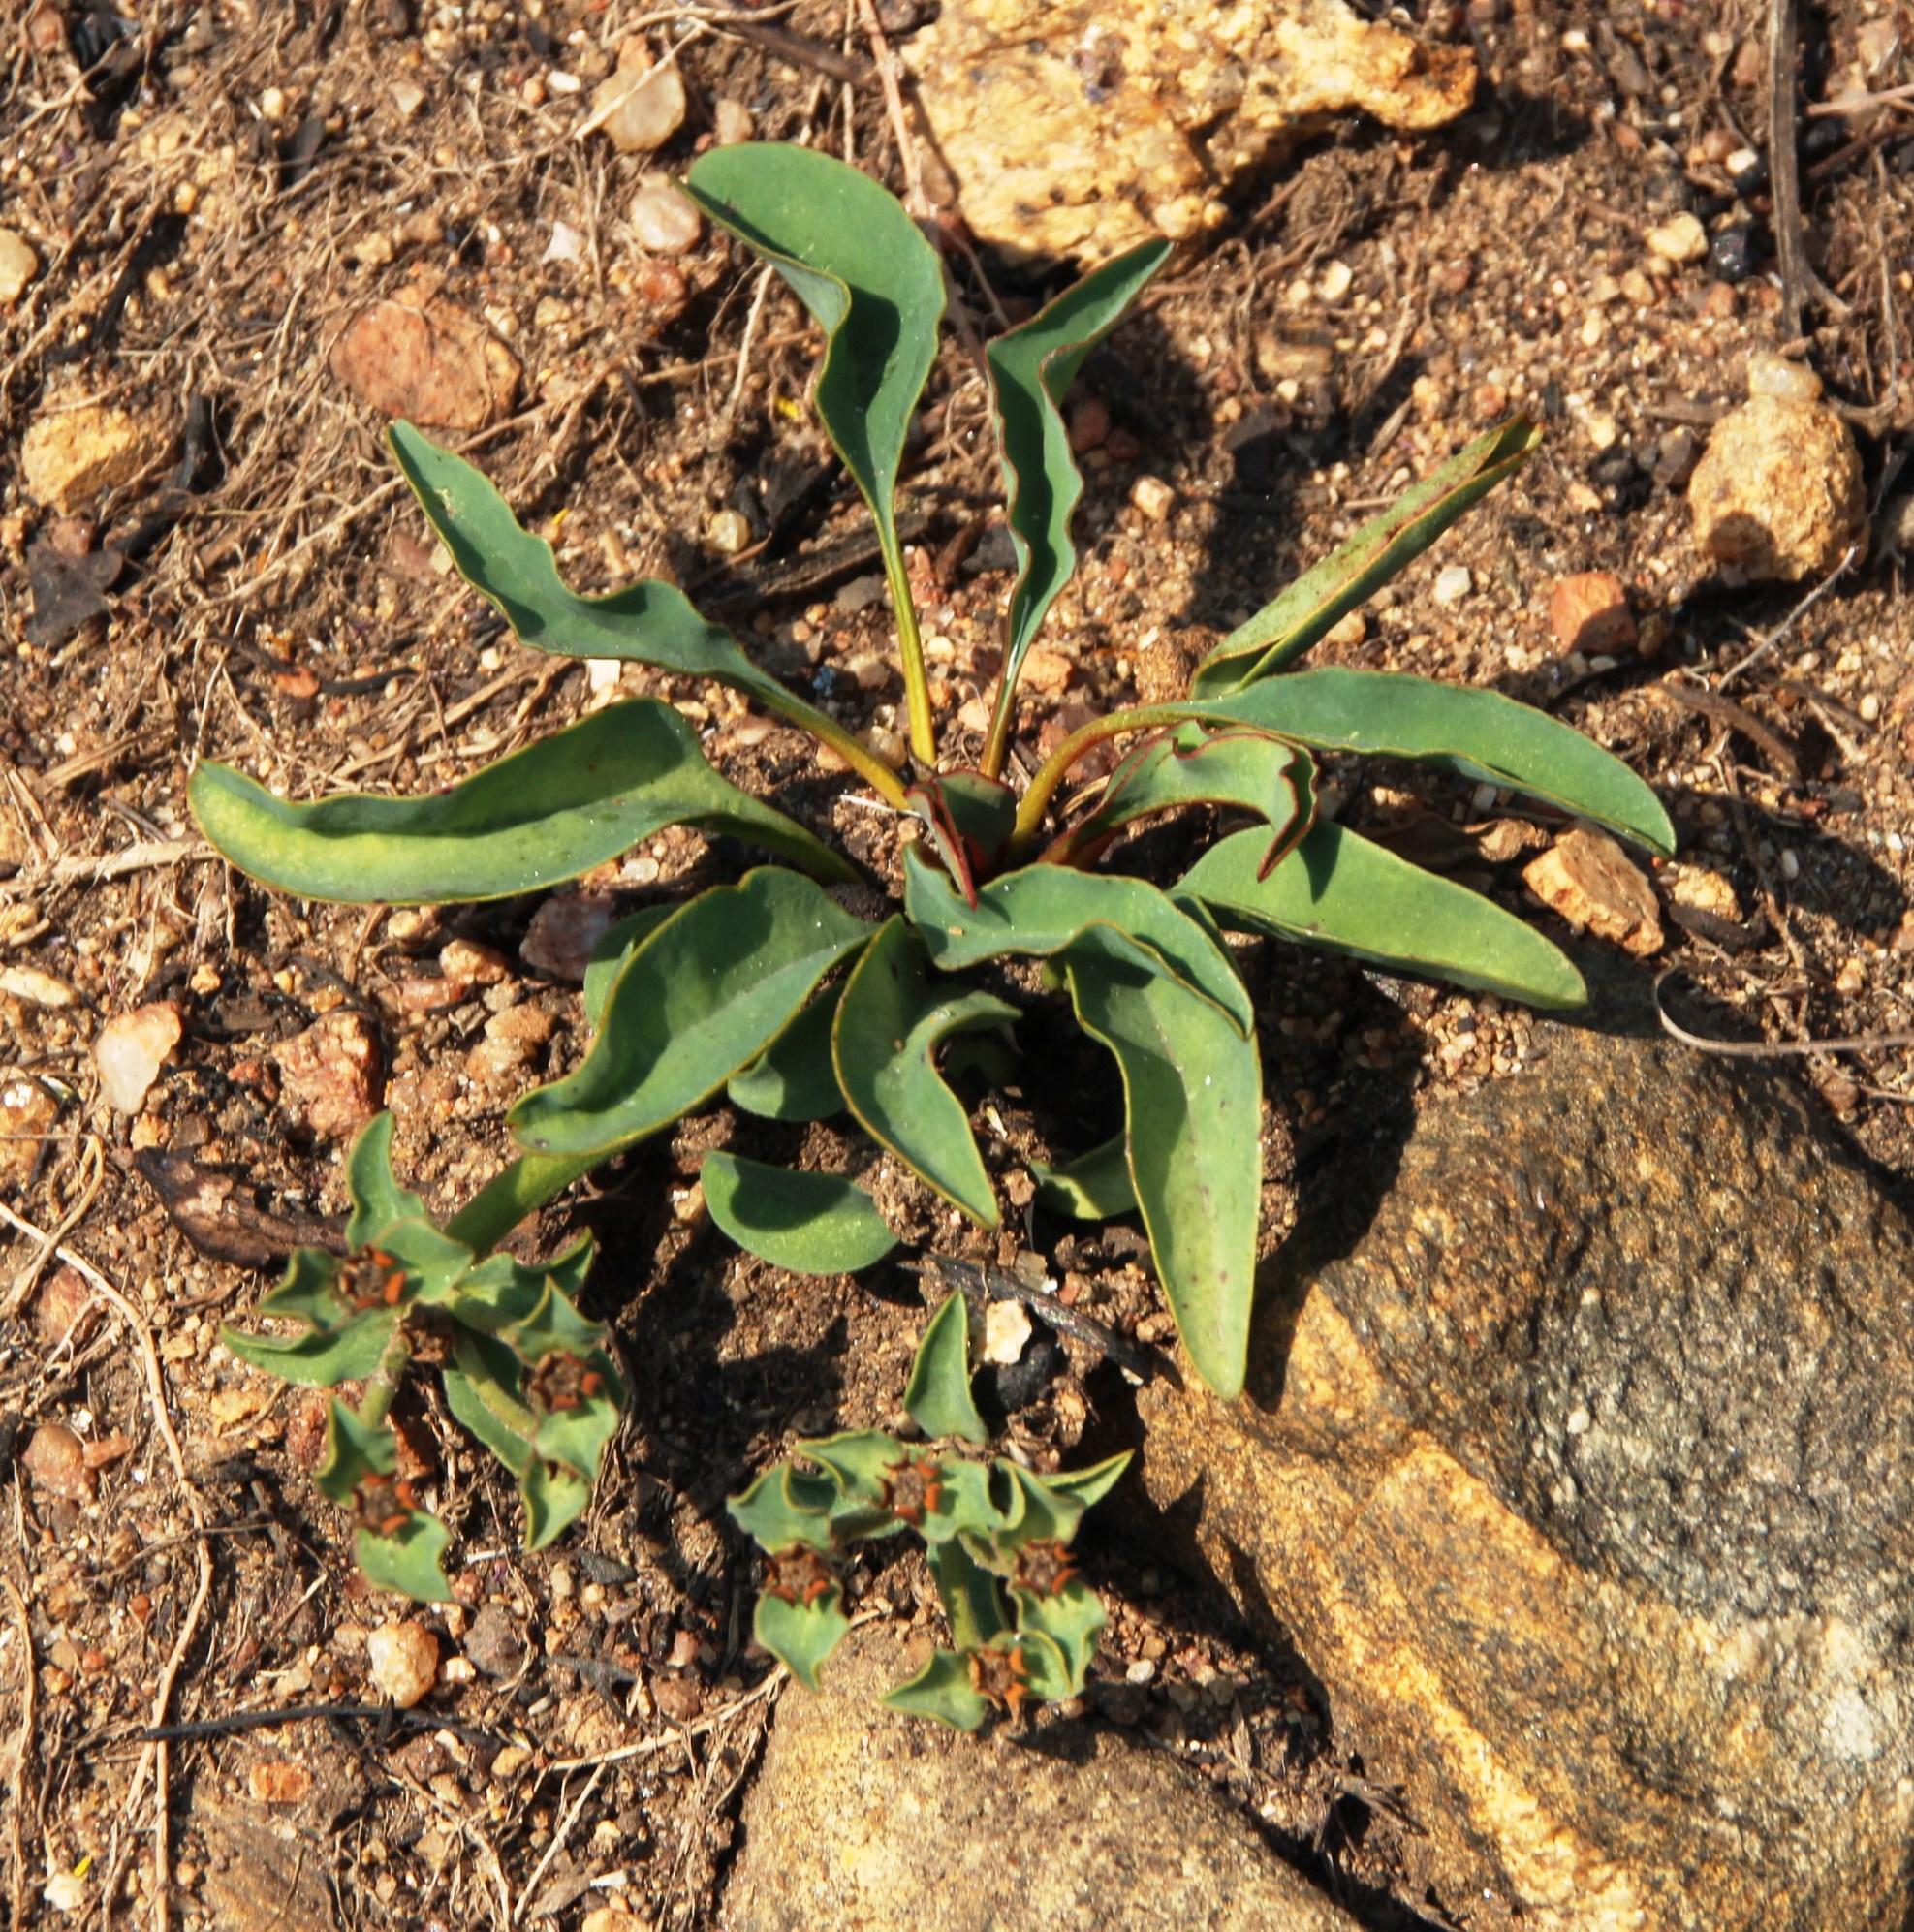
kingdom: Plantae
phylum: Tracheophyta
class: Magnoliopsida
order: Malpighiales
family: Euphorbiaceae
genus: Euphorbia
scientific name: Euphorbia tuberosa
